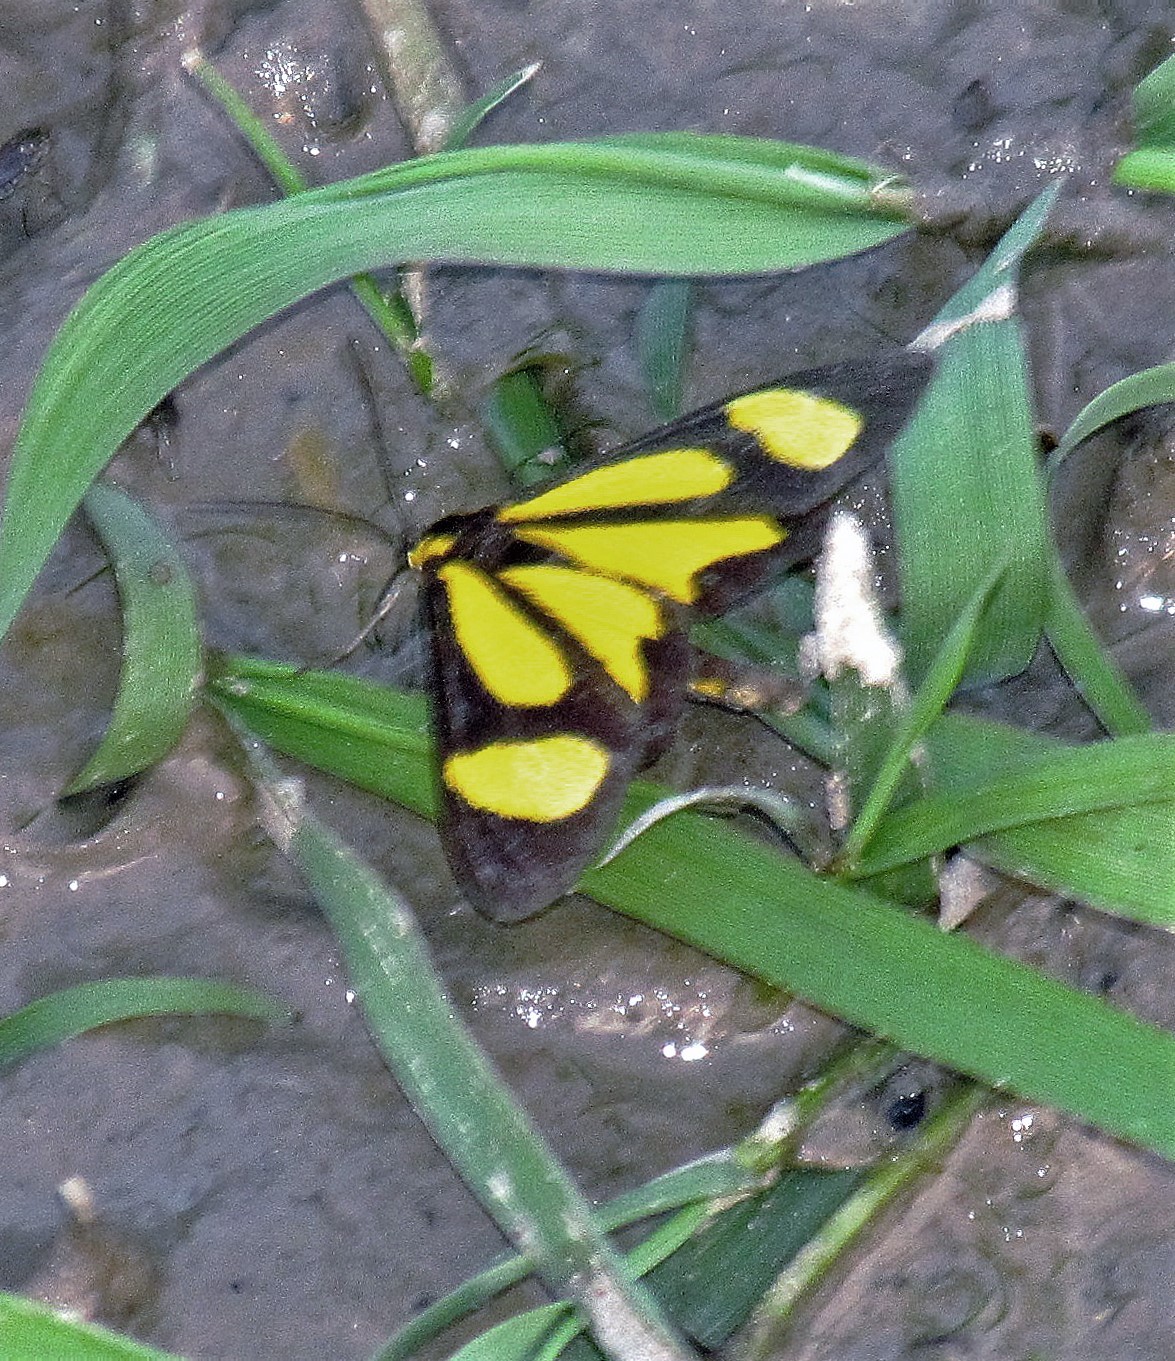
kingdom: Animalia
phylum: Arthropoda
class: Insecta
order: Lepidoptera
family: Geometridae
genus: Cyllopoda
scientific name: Cyllopoda bipuncta
